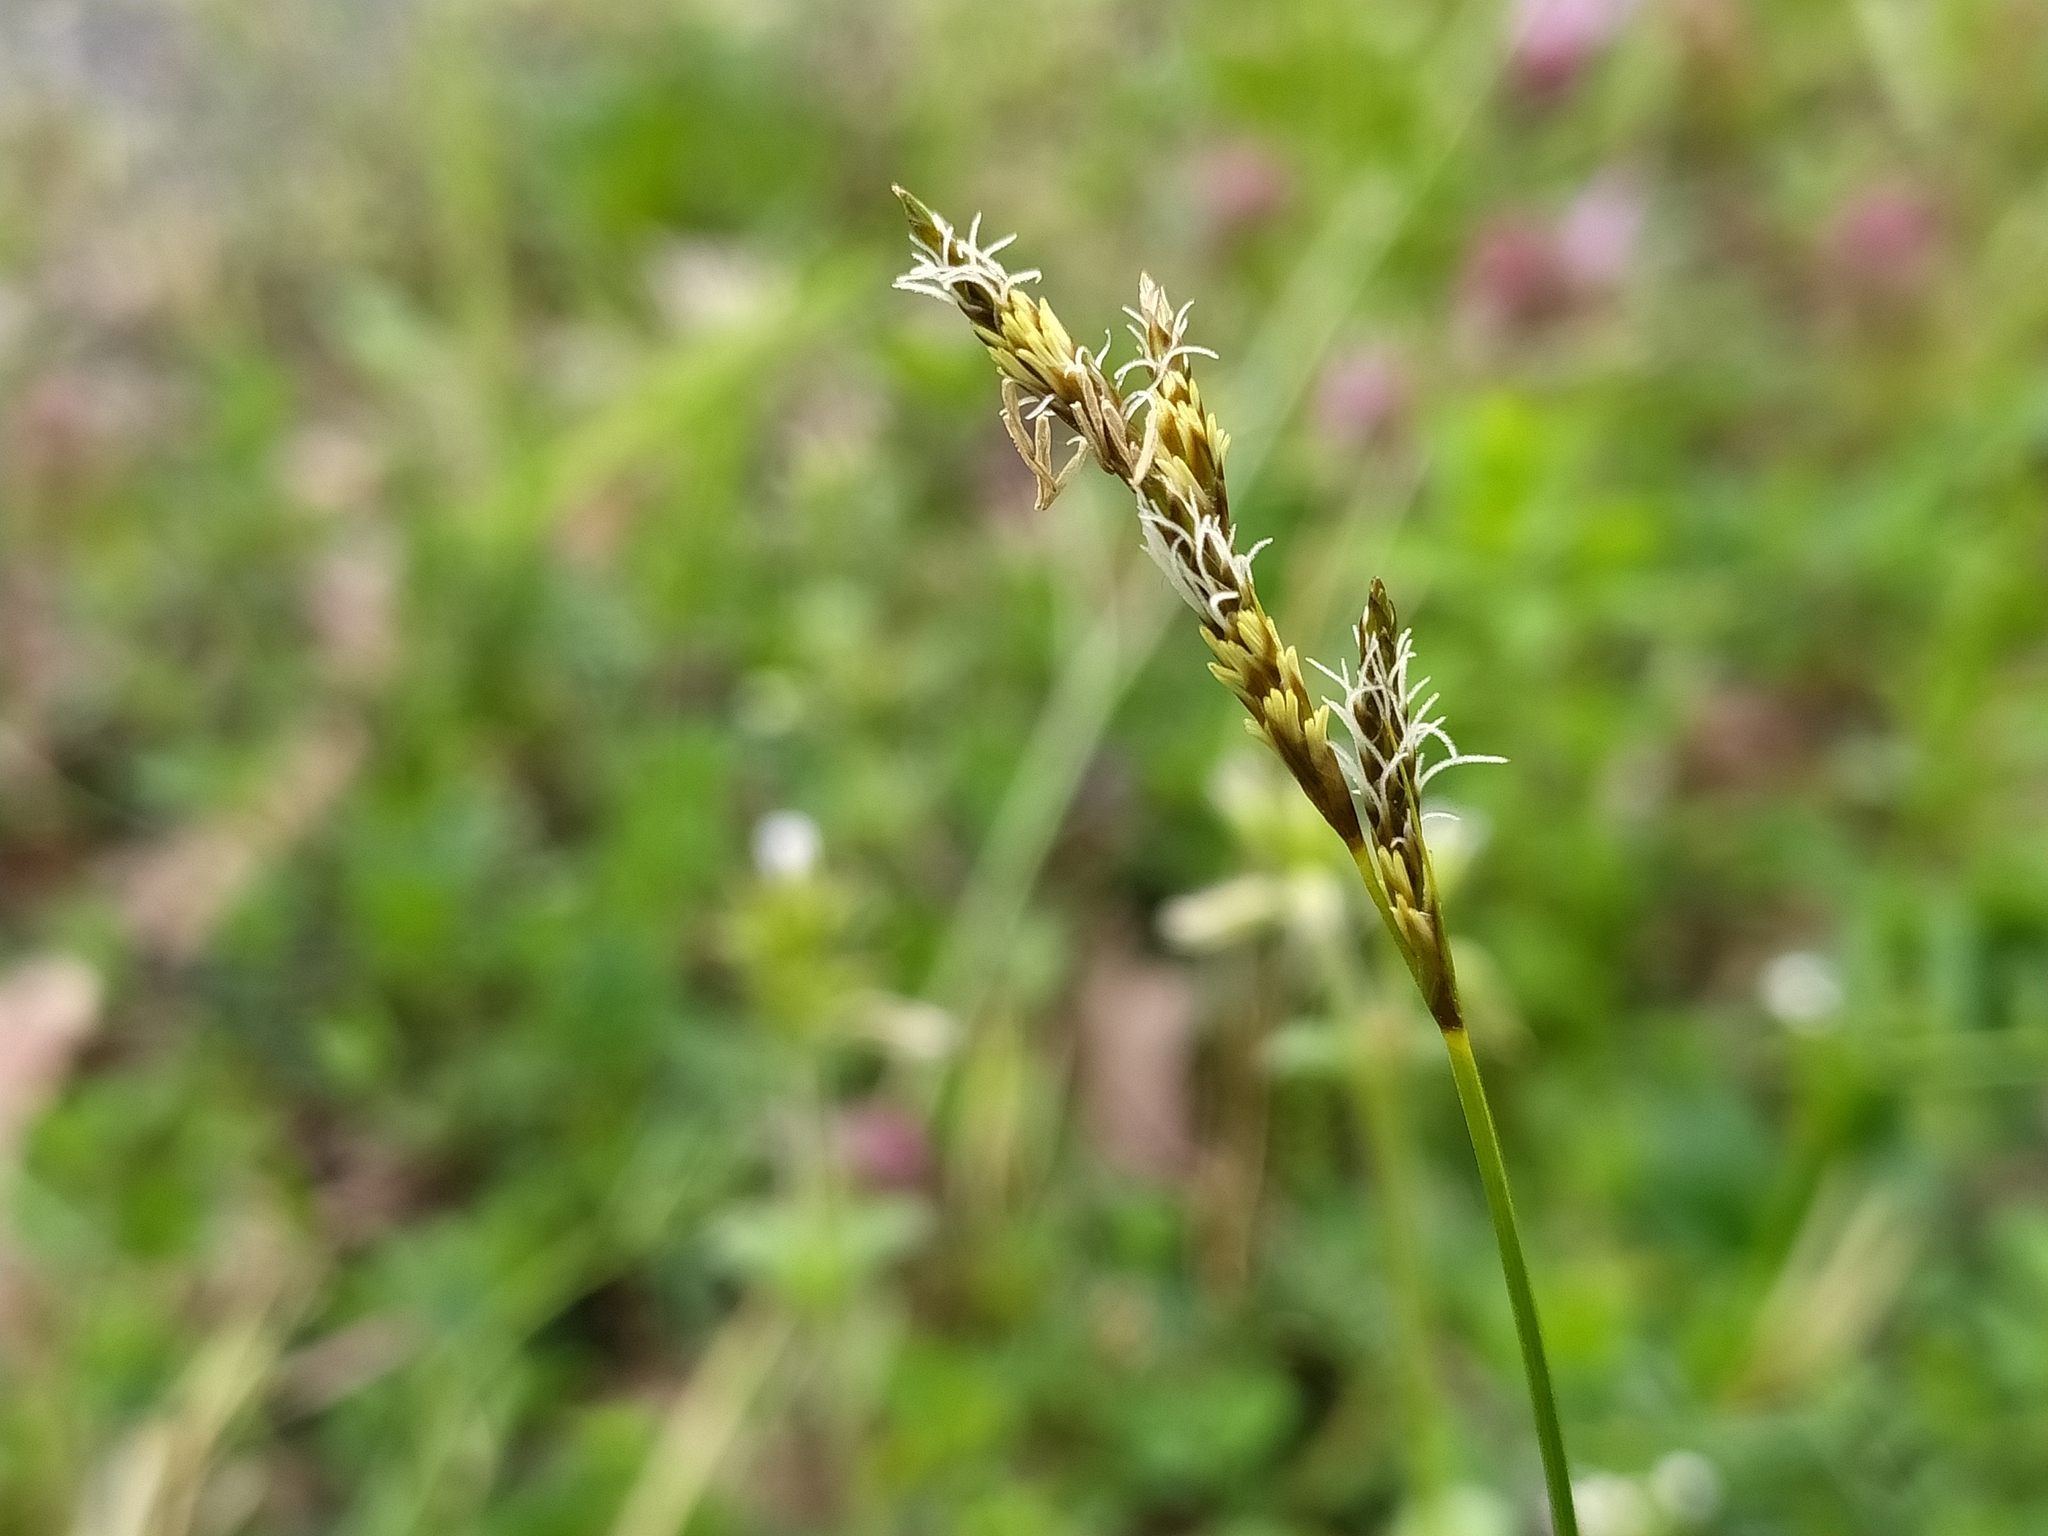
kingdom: Plantae
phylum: Tracheophyta
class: Liliopsida
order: Poales
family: Cyperaceae
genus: Carex
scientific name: Carex praecox
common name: Early sedge
